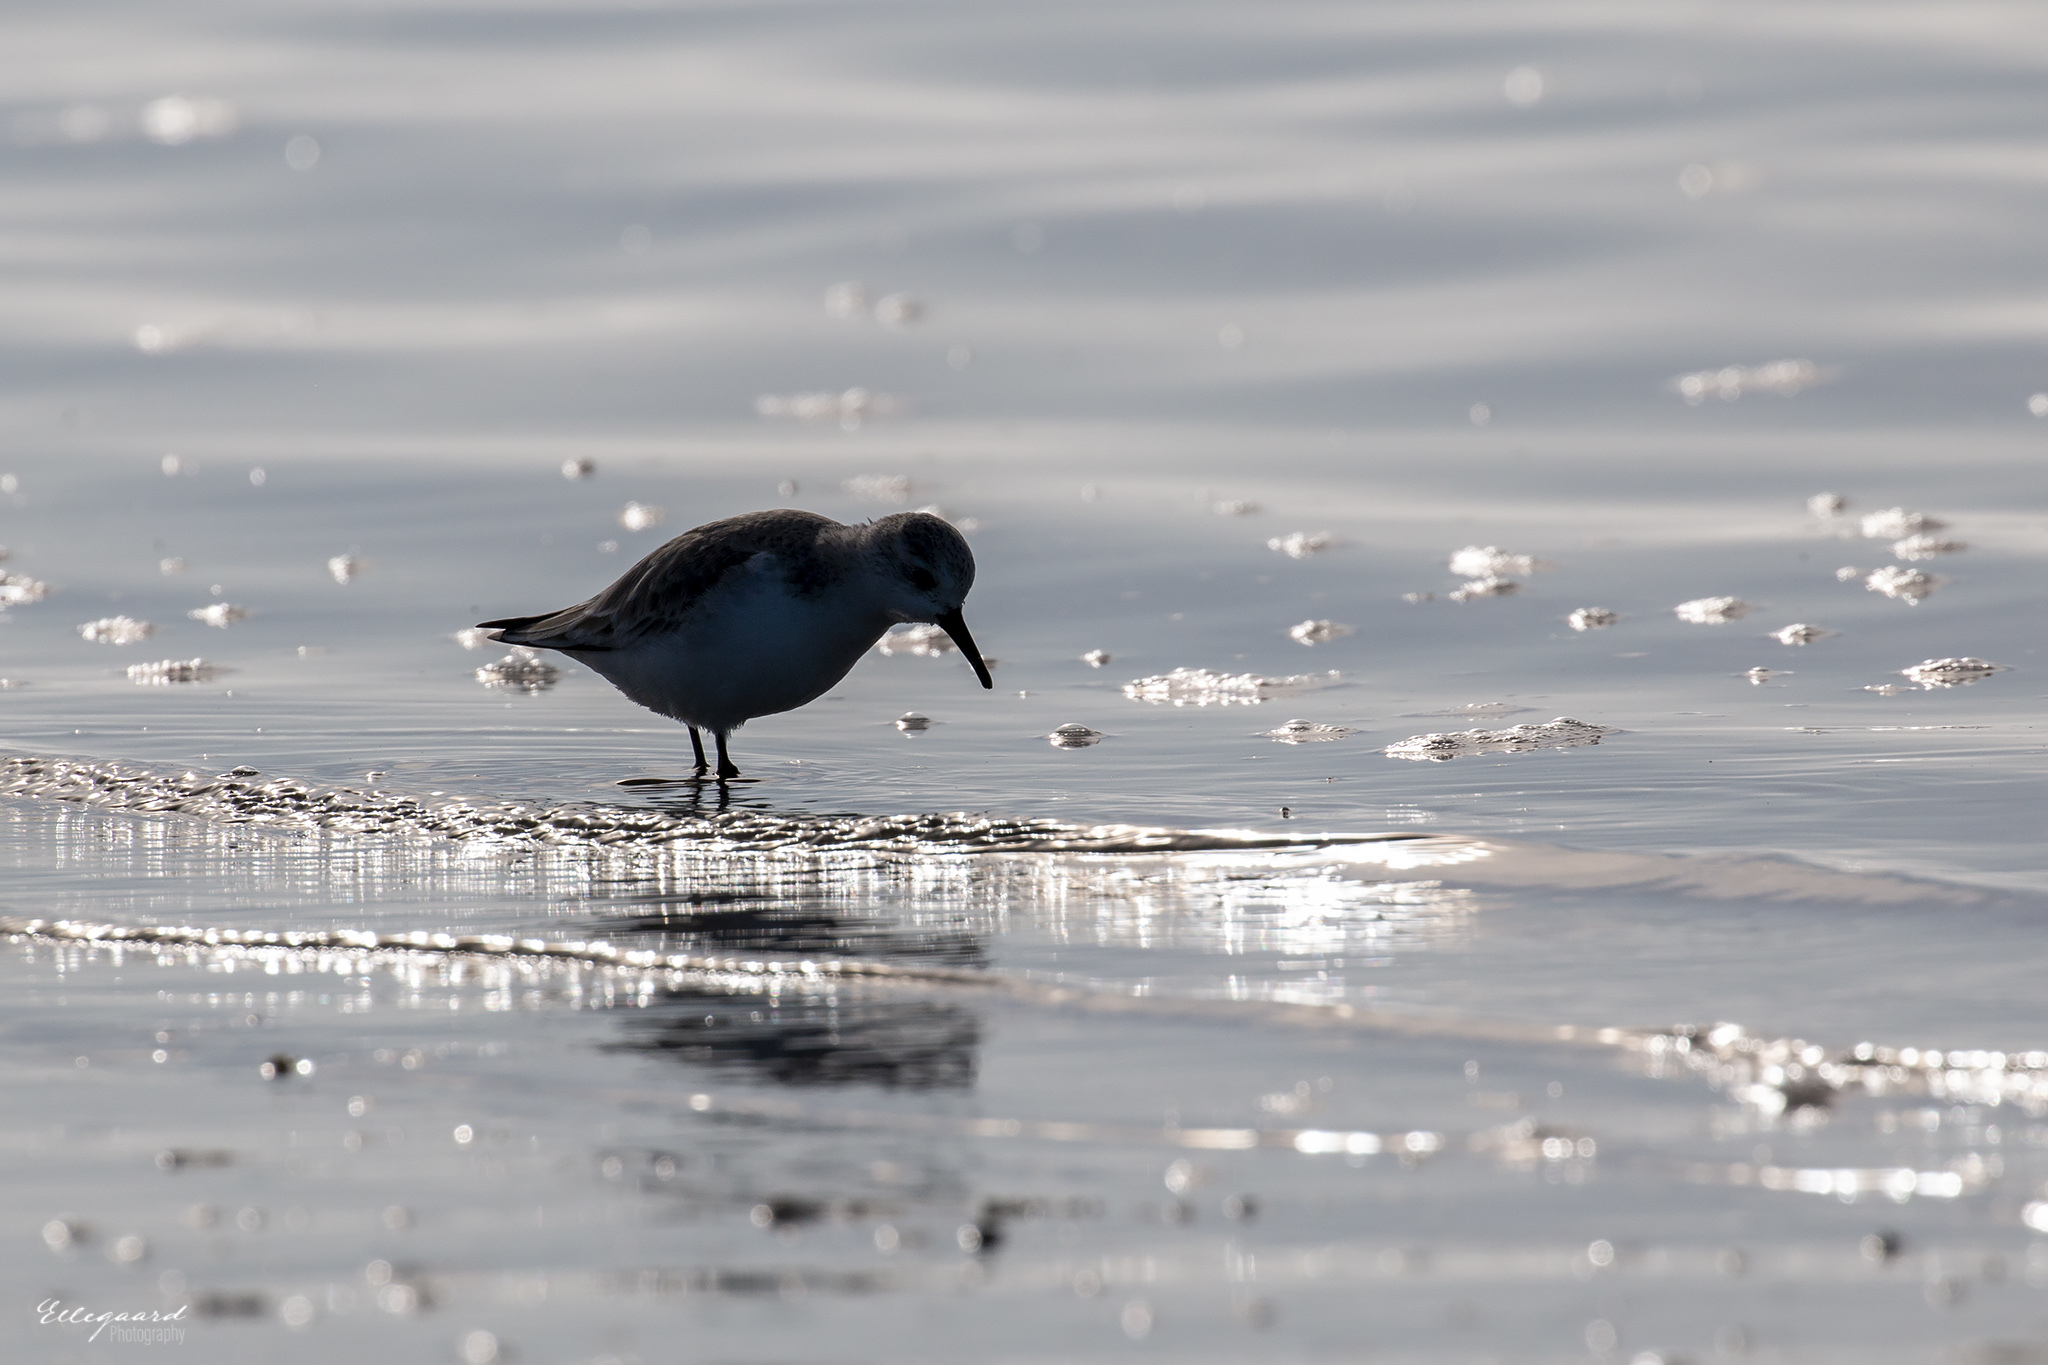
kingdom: Animalia
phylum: Chordata
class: Aves
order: Charadriiformes
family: Scolopacidae
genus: Calidris
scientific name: Calidris alba
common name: Sanderling
